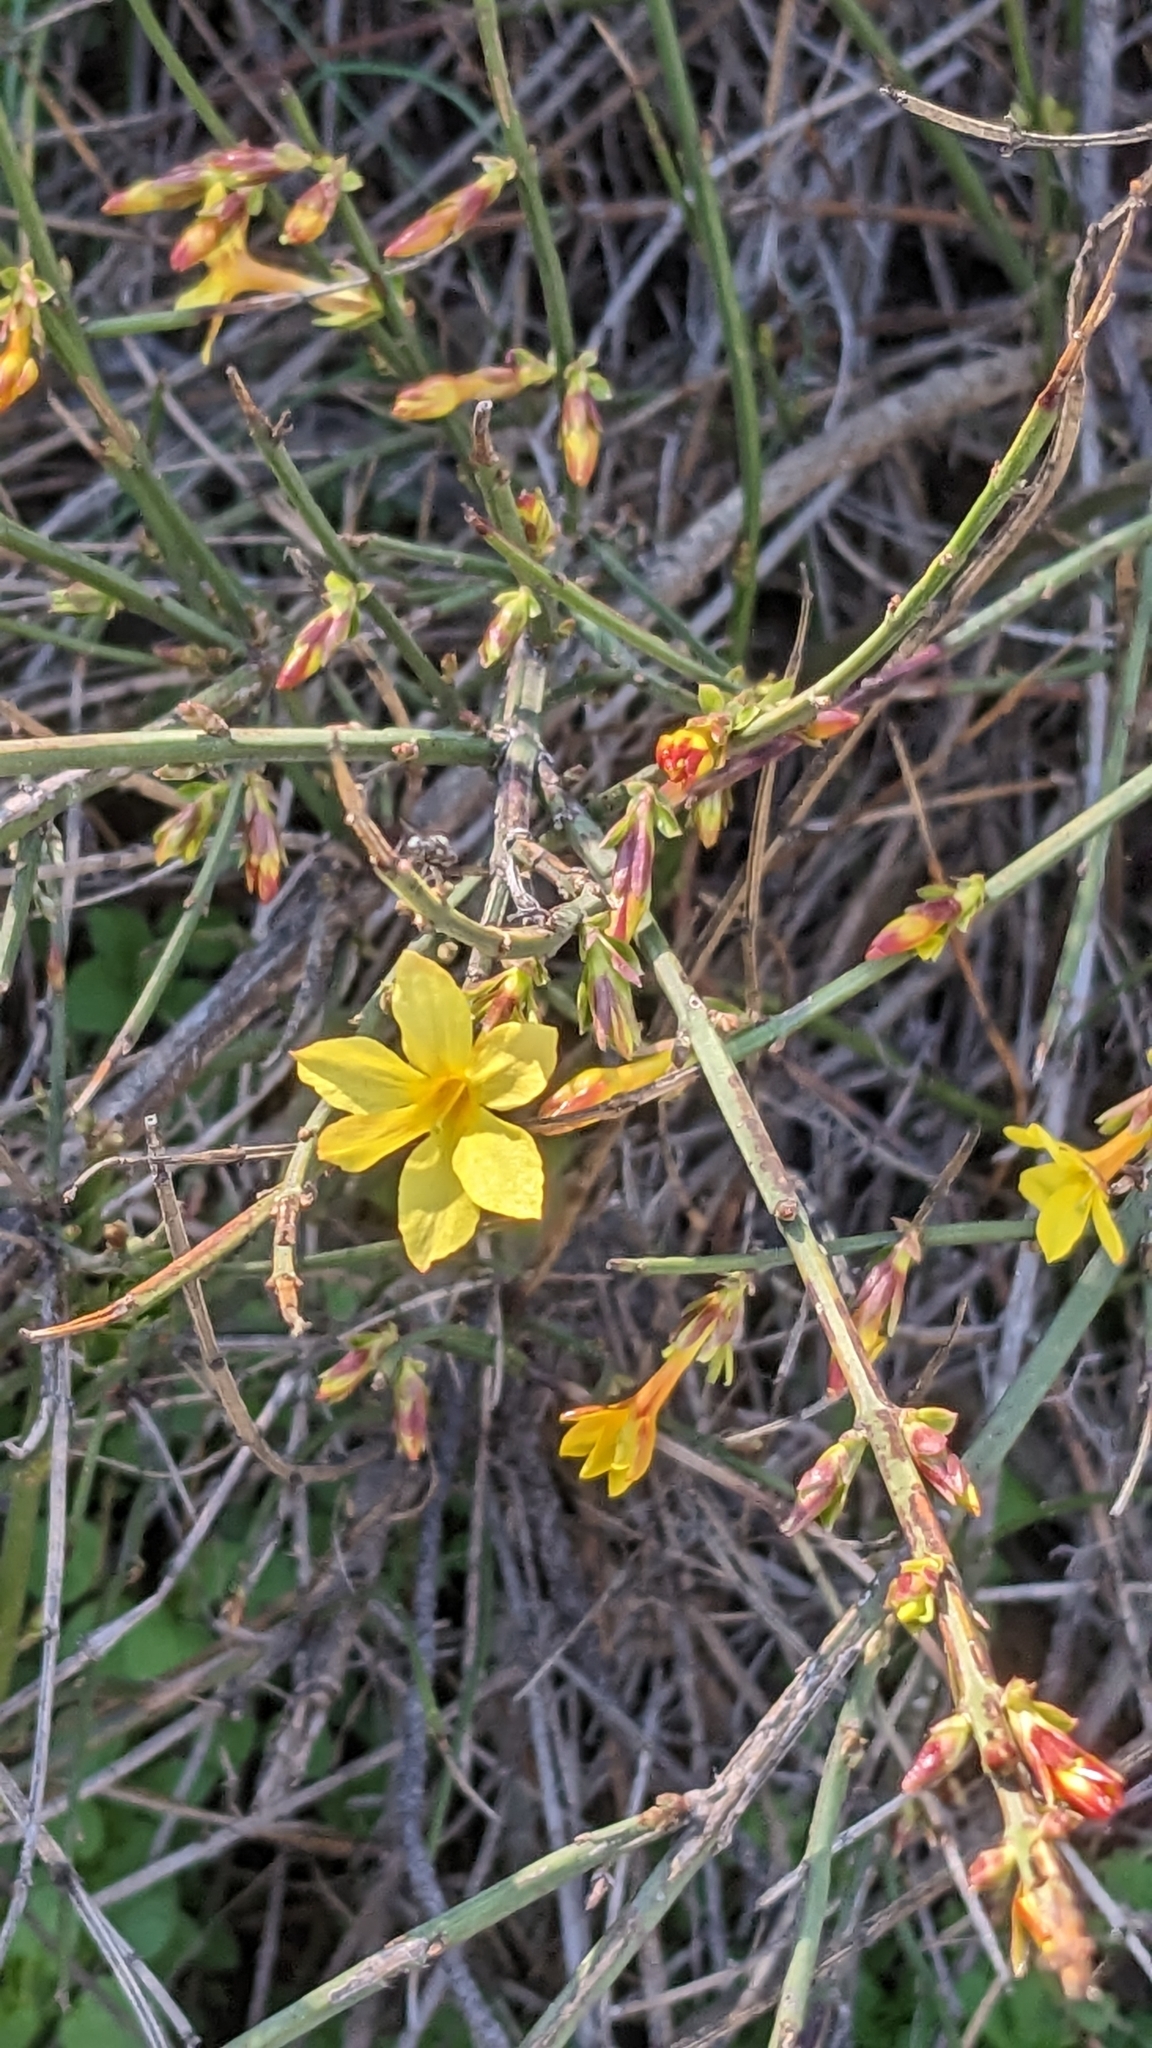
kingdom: Plantae
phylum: Tracheophyta
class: Magnoliopsida
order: Lamiales
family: Oleaceae
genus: Jasminum
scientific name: Jasminum nudiflorum
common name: Winter jasmine
